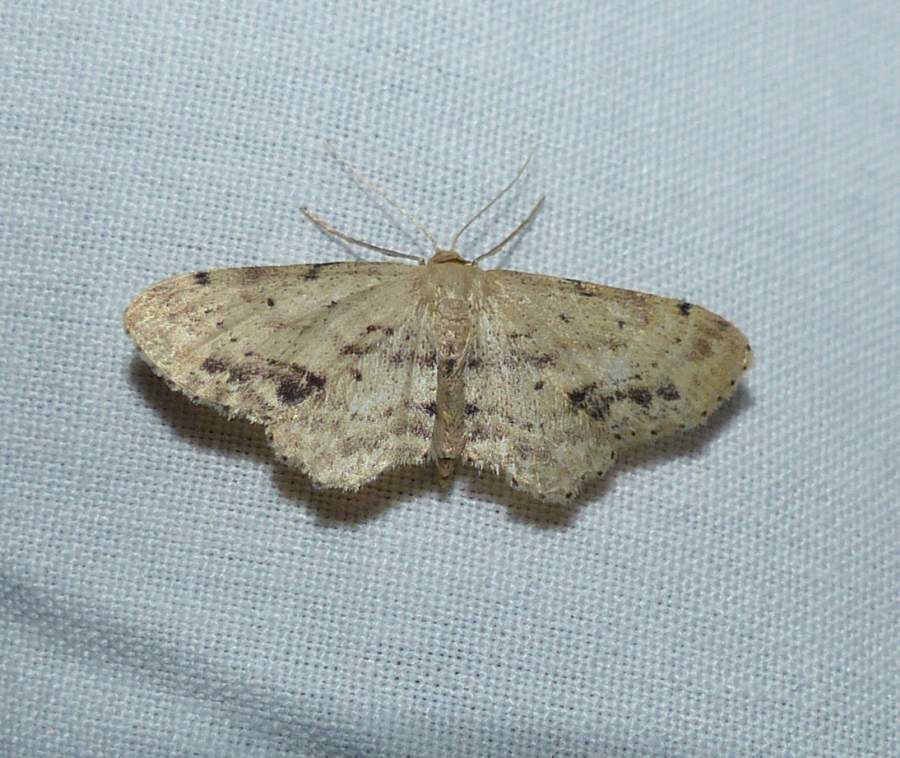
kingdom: Animalia
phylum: Arthropoda
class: Insecta
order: Lepidoptera
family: Geometridae
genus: Idaea
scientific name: Idaea dimidiata
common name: Single-dotted wave
